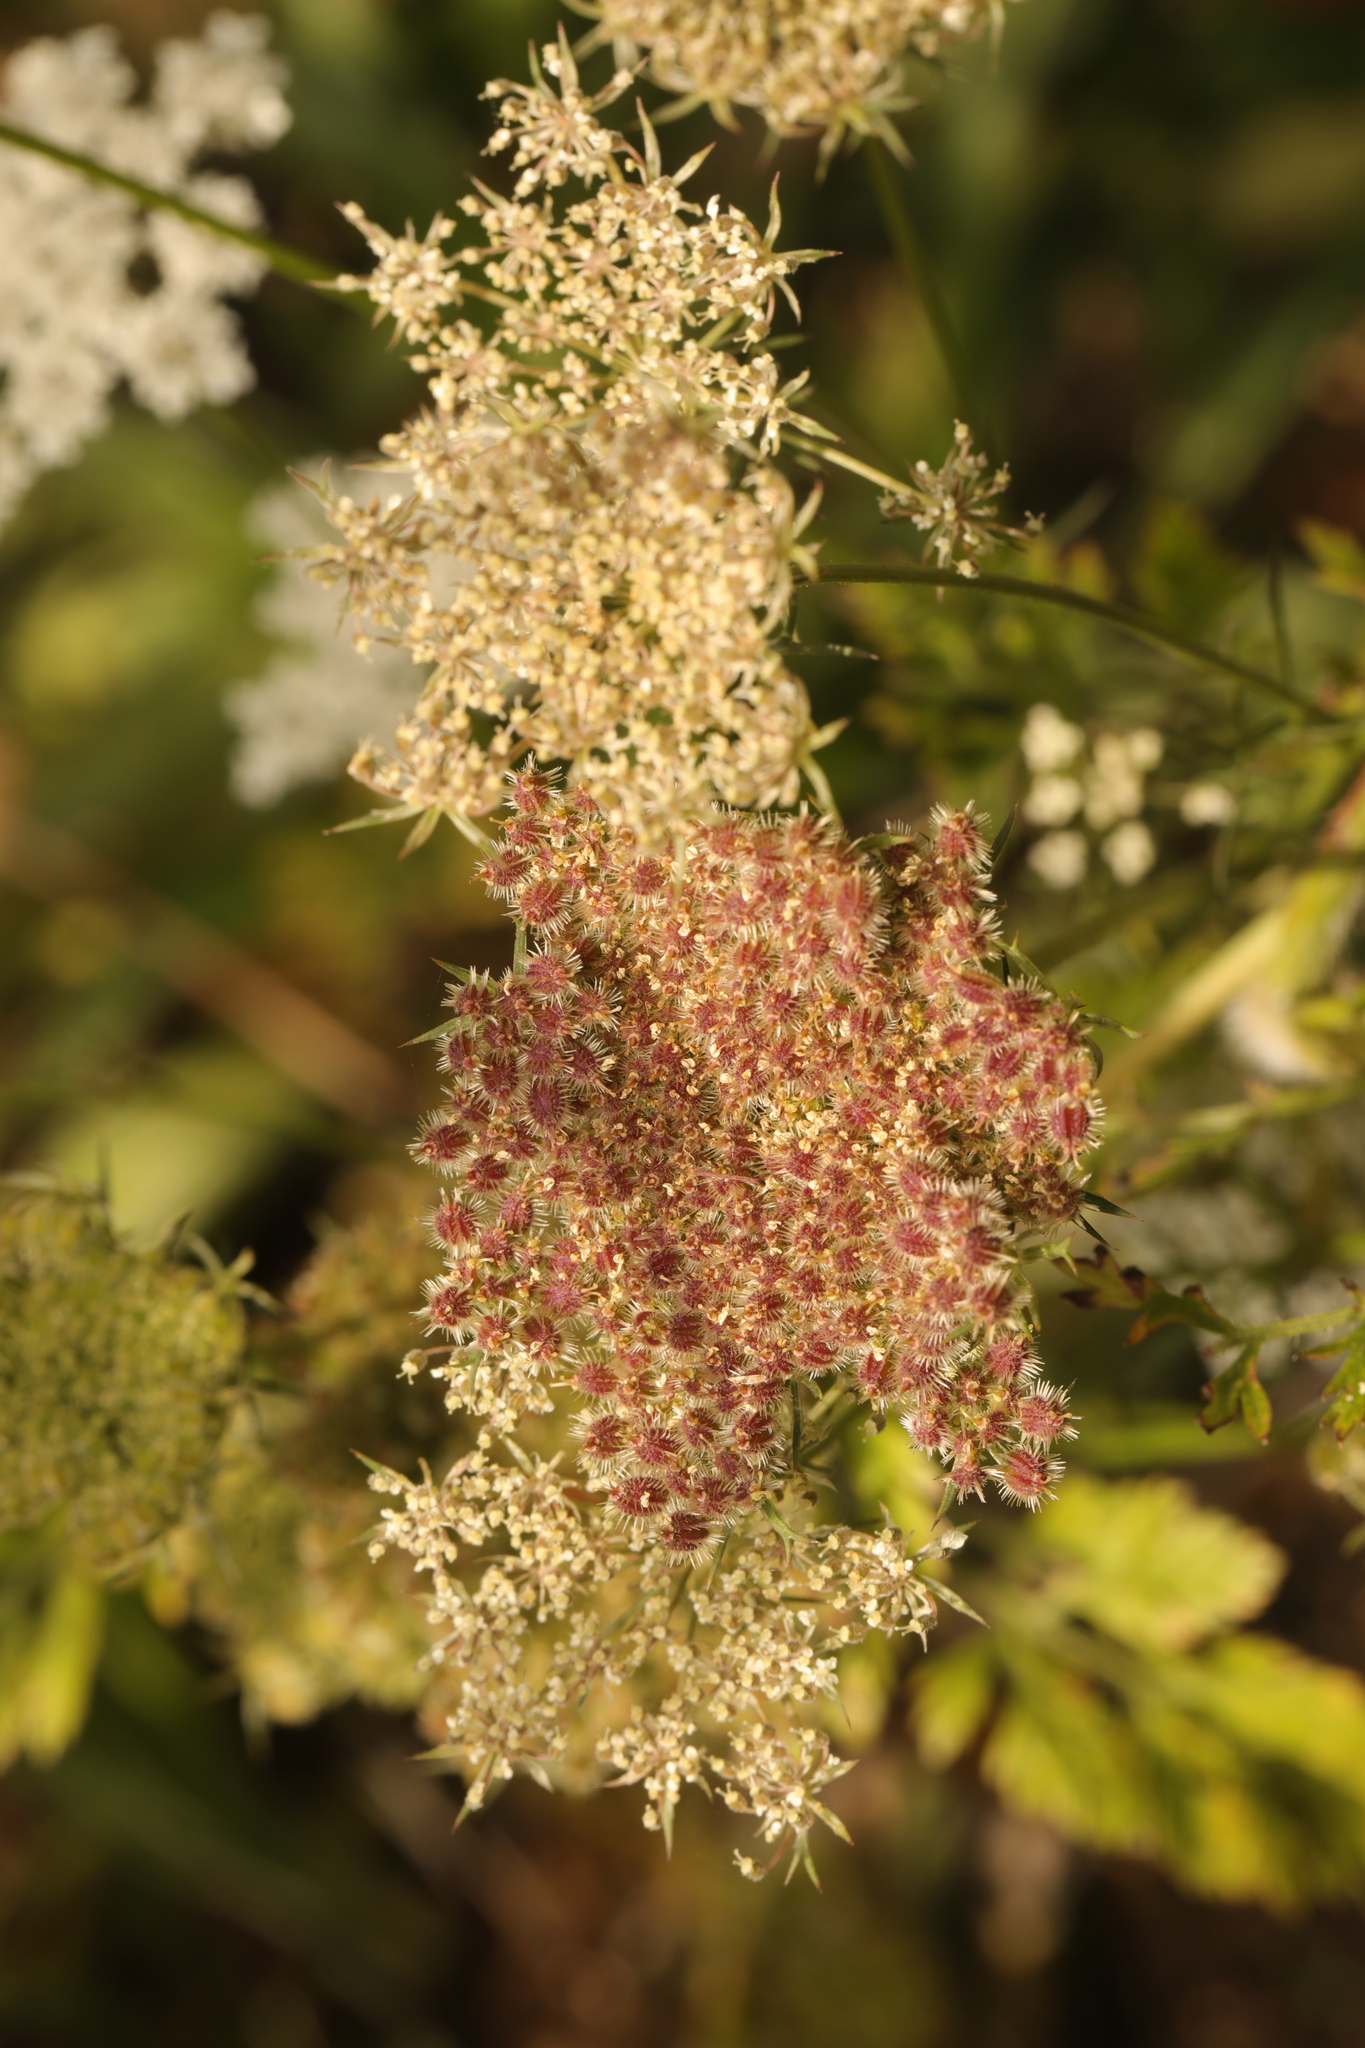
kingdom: Plantae
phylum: Tracheophyta
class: Magnoliopsida
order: Apiales
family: Apiaceae
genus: Daucus
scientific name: Daucus carota
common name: Wild carrot
